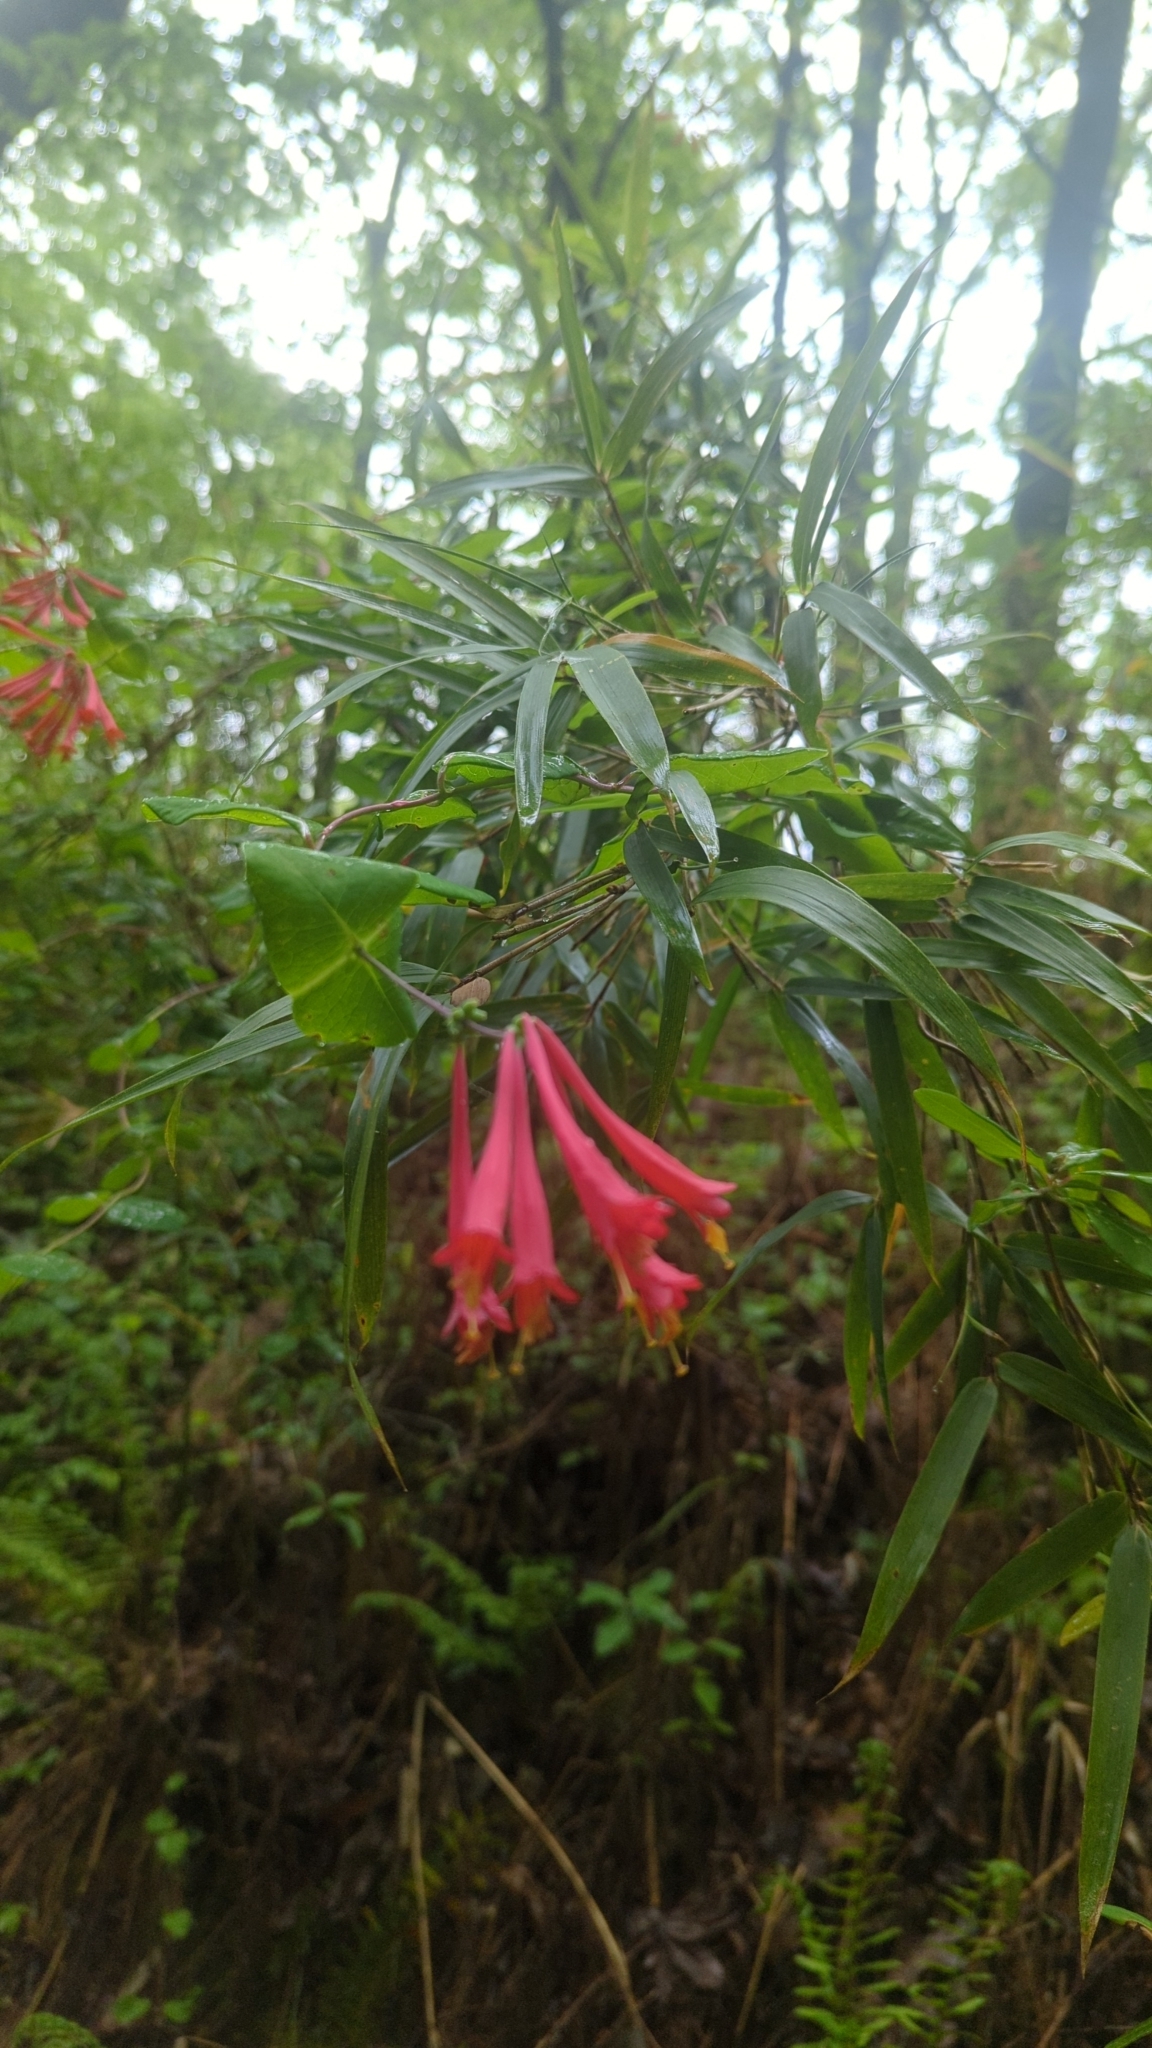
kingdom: Plantae
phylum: Tracheophyta
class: Magnoliopsida
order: Dipsacales
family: Caprifoliaceae
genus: Lonicera
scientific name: Lonicera sempervirens
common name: Coral honeysuckle
